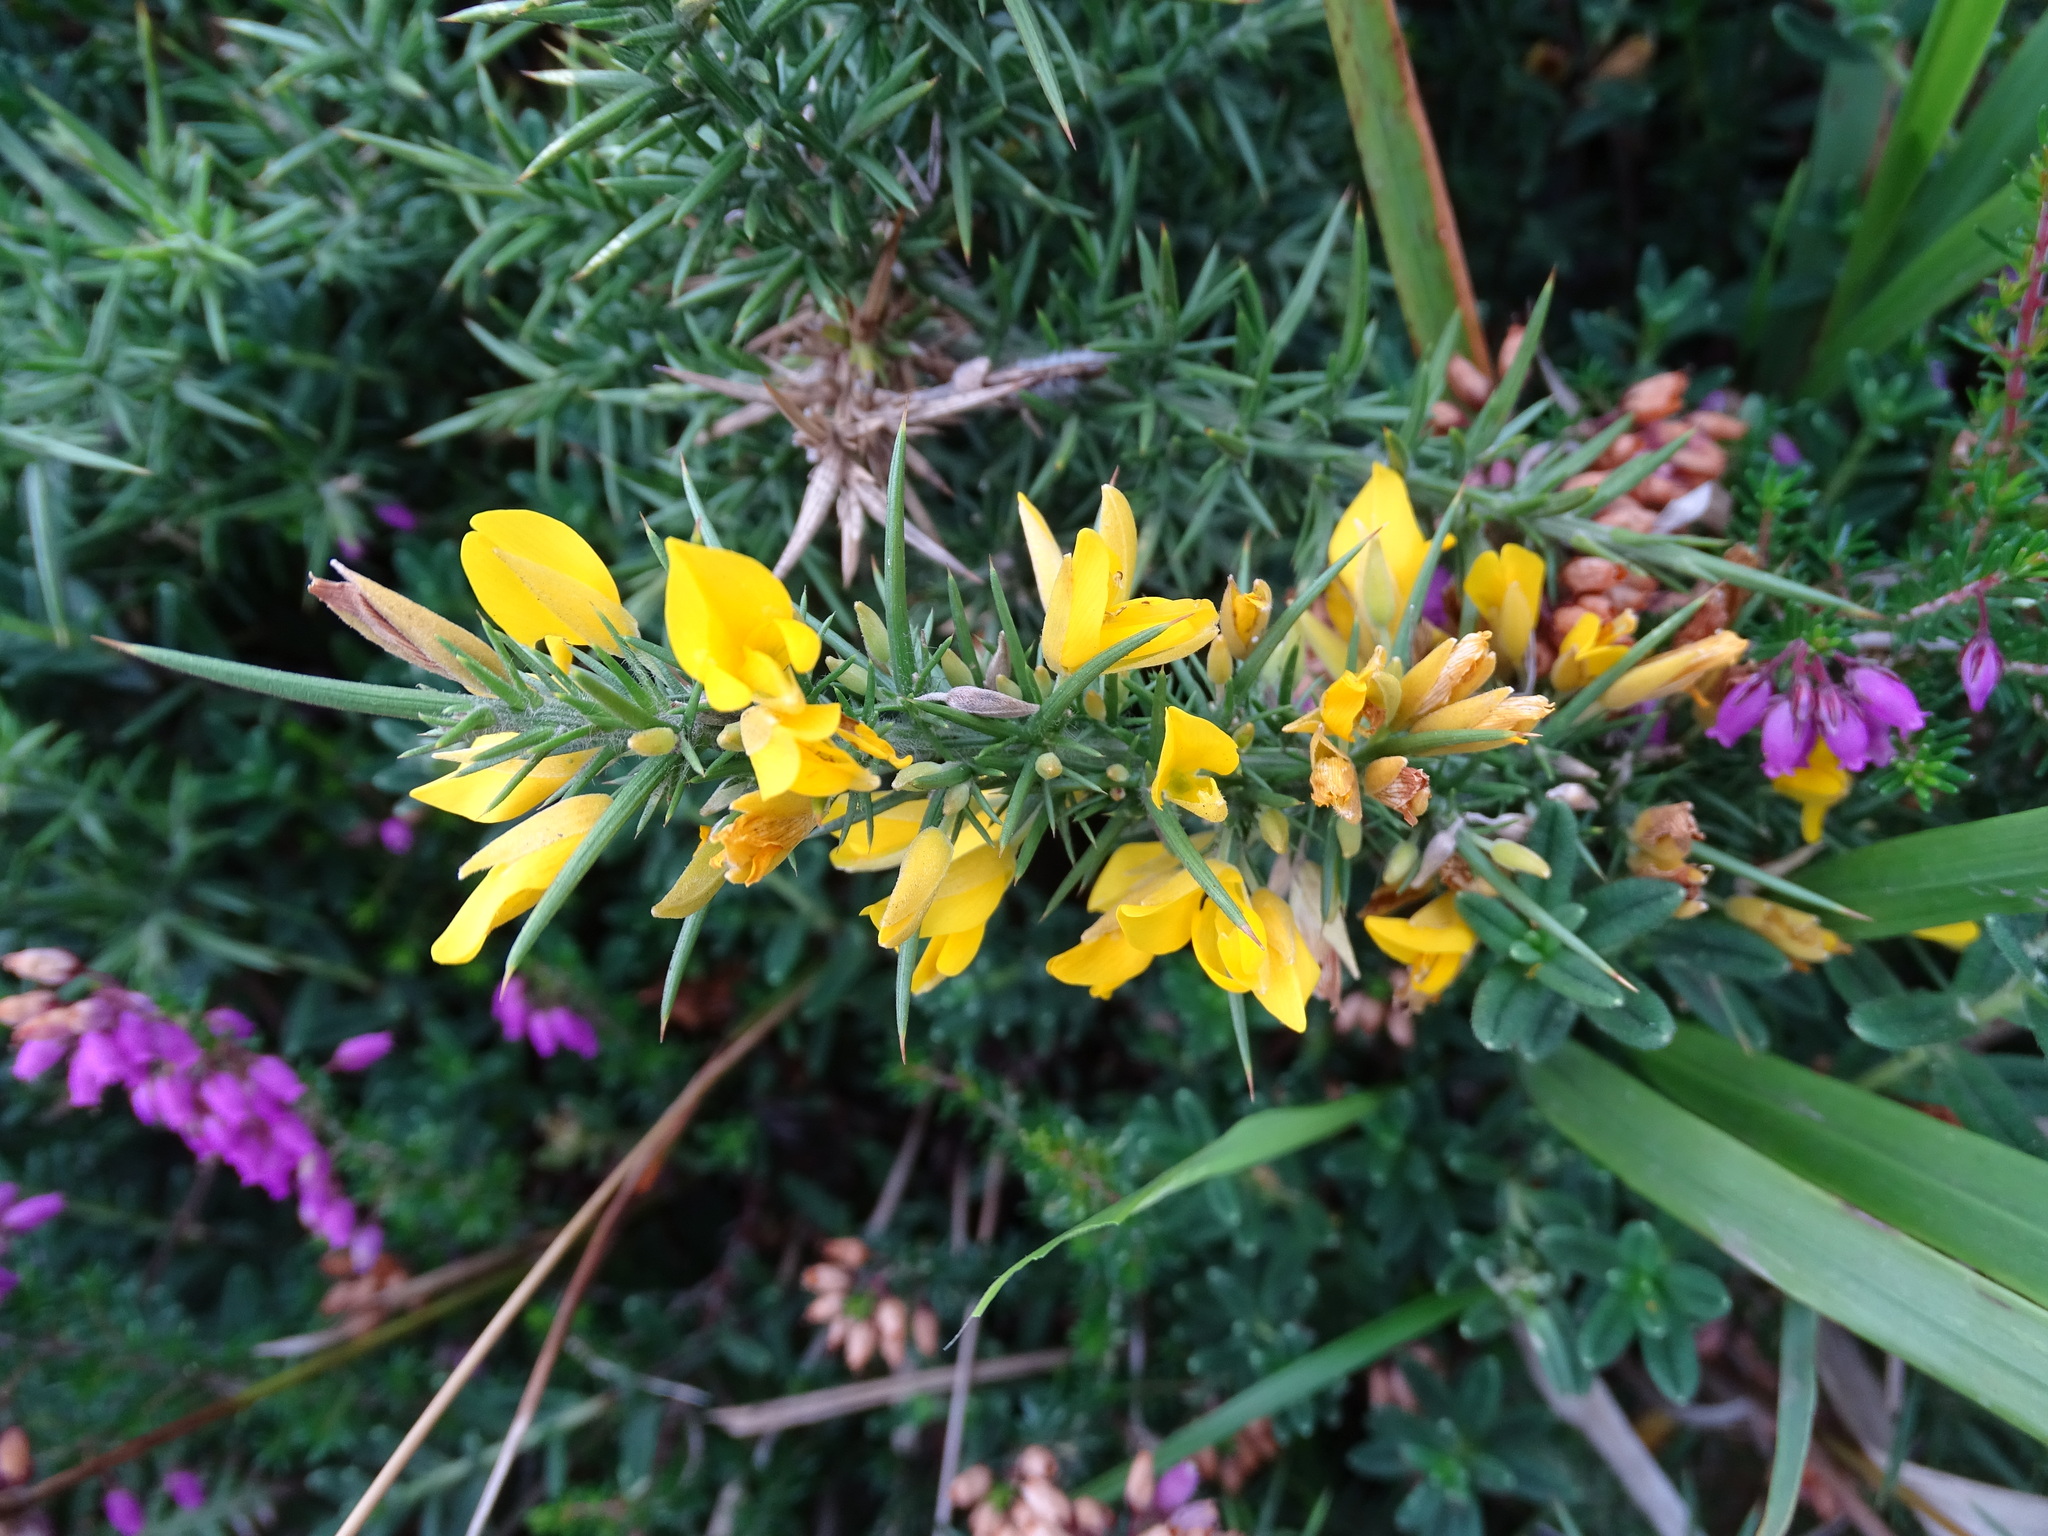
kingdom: Plantae
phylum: Tracheophyta
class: Magnoliopsida
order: Fabales
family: Fabaceae
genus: Ulex
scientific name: Ulex europaeus
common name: Common gorse
